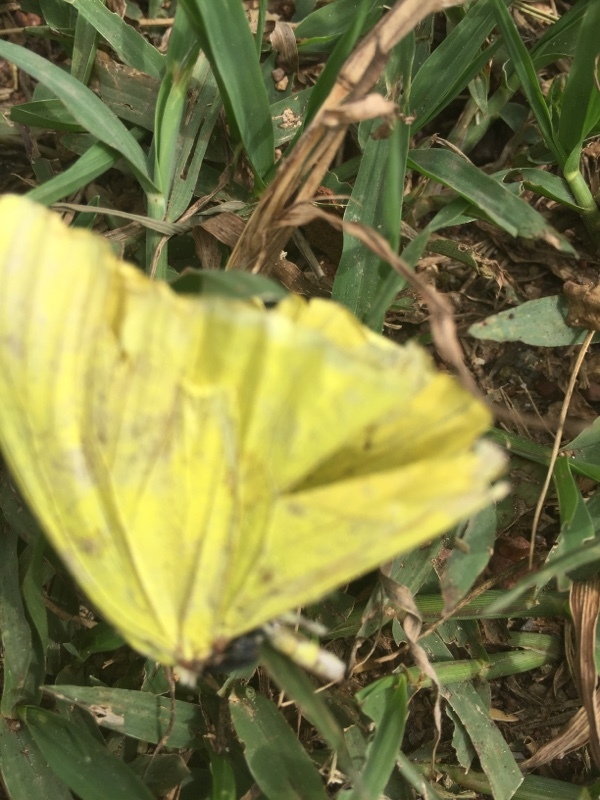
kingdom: Animalia
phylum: Arthropoda
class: Insecta
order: Lepidoptera
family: Pieridae
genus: Phoebis
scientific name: Phoebis sennae
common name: Cloudless sulphur
